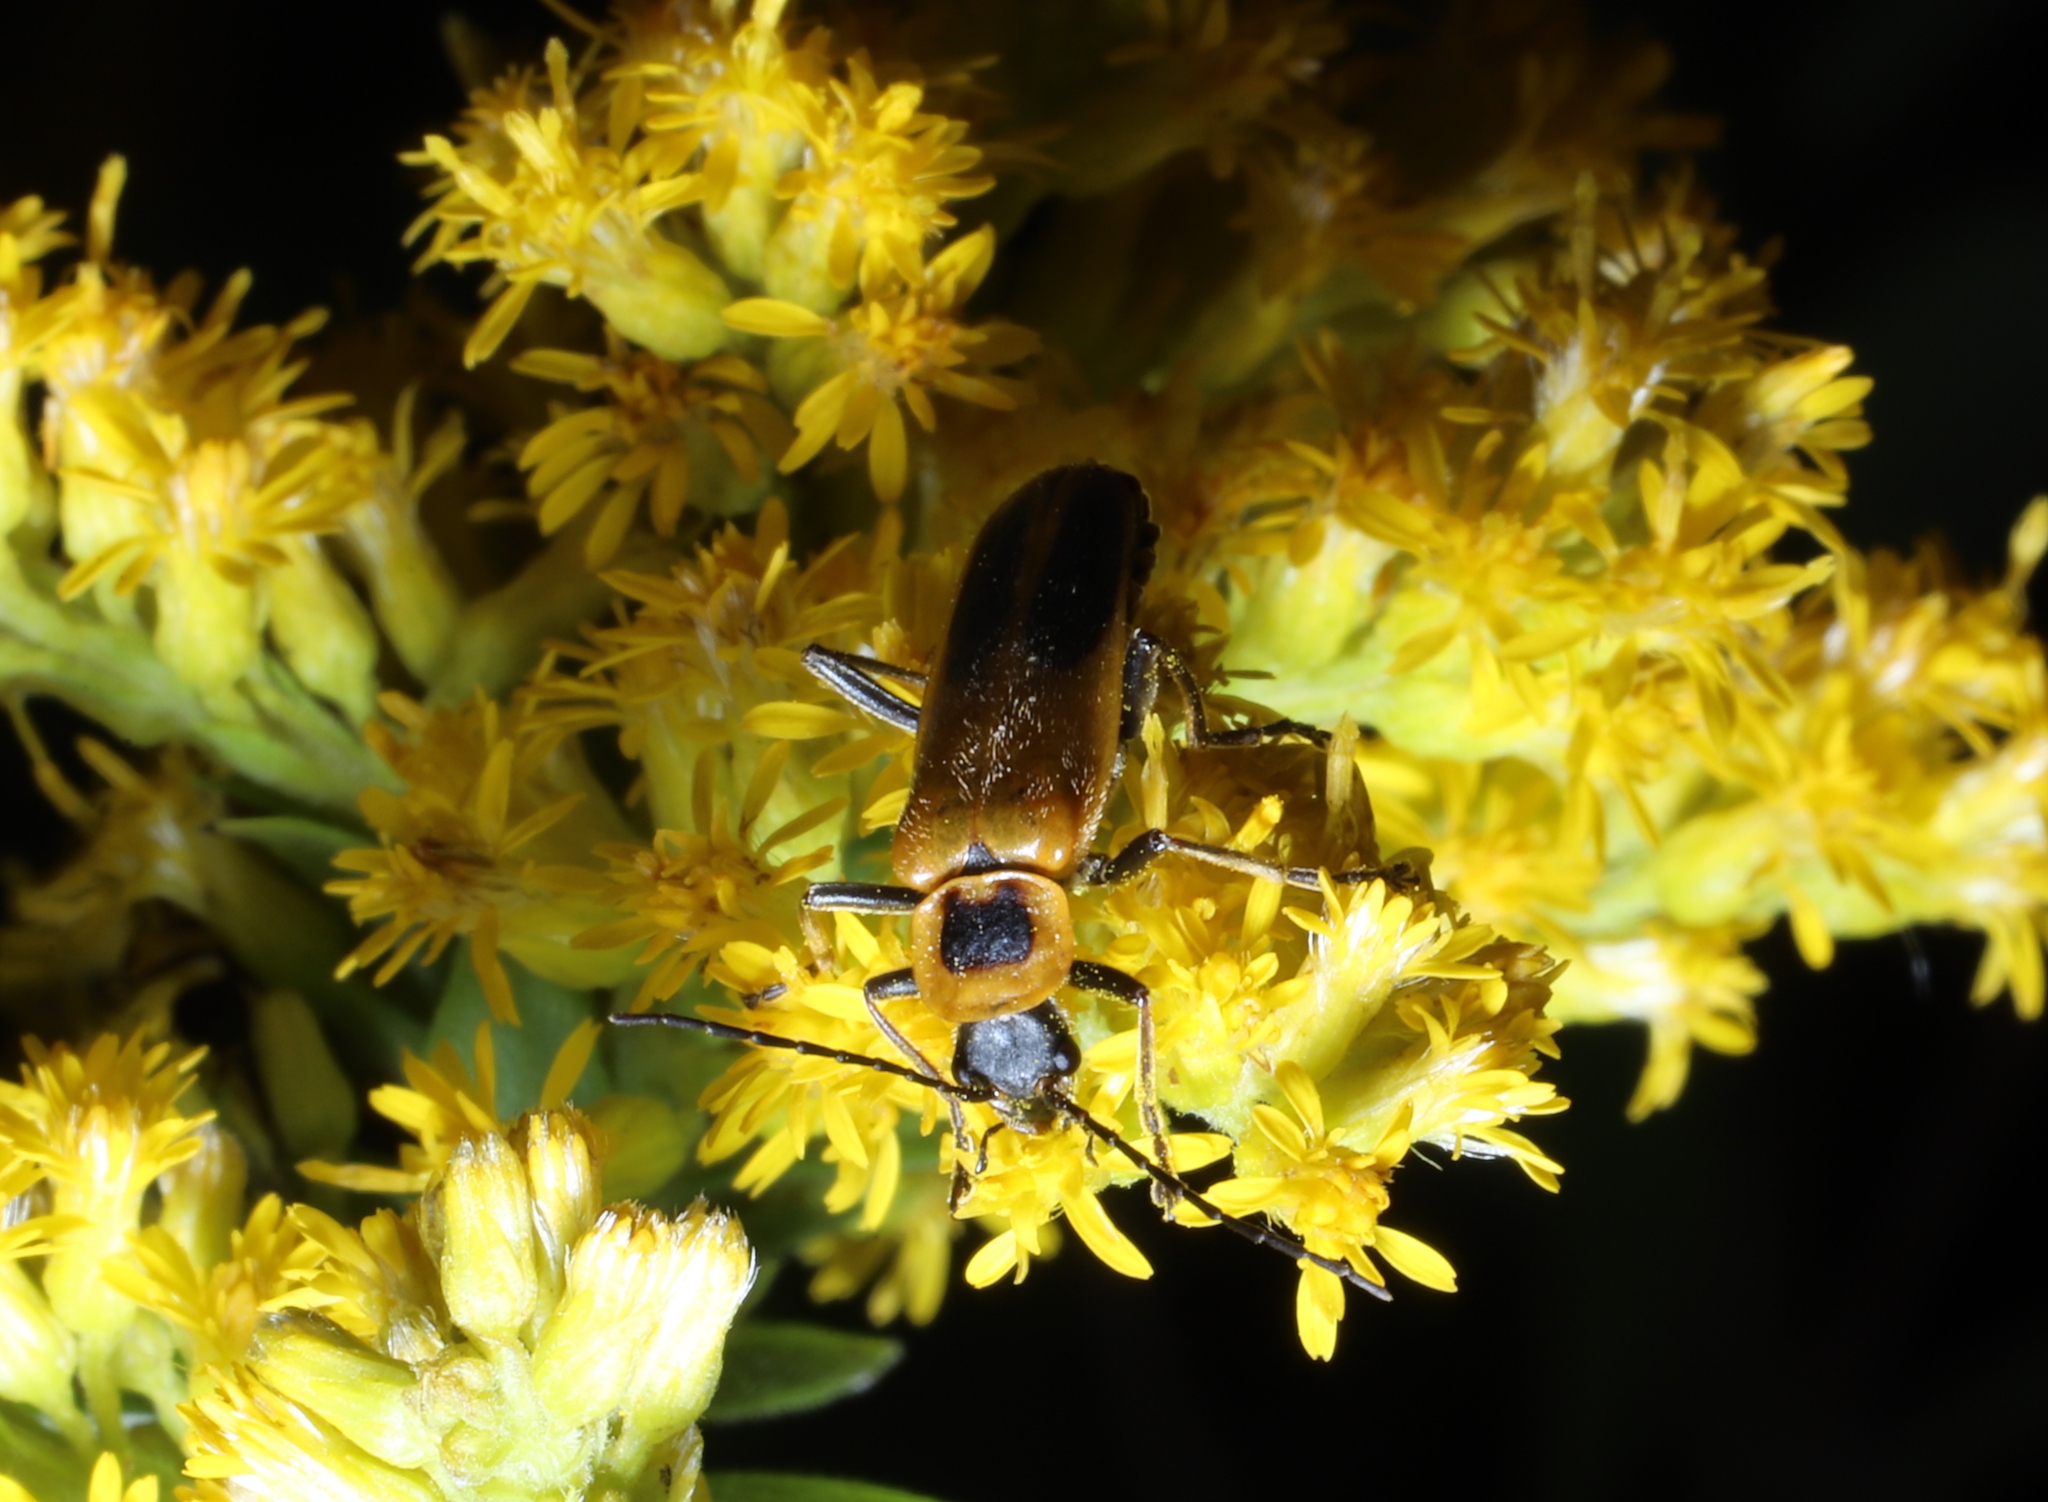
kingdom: Animalia
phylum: Arthropoda
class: Insecta
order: Coleoptera
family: Cantharidae
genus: Chauliognathus
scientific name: Chauliognathus pensylvanicus
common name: Goldenrod soldier beetle
